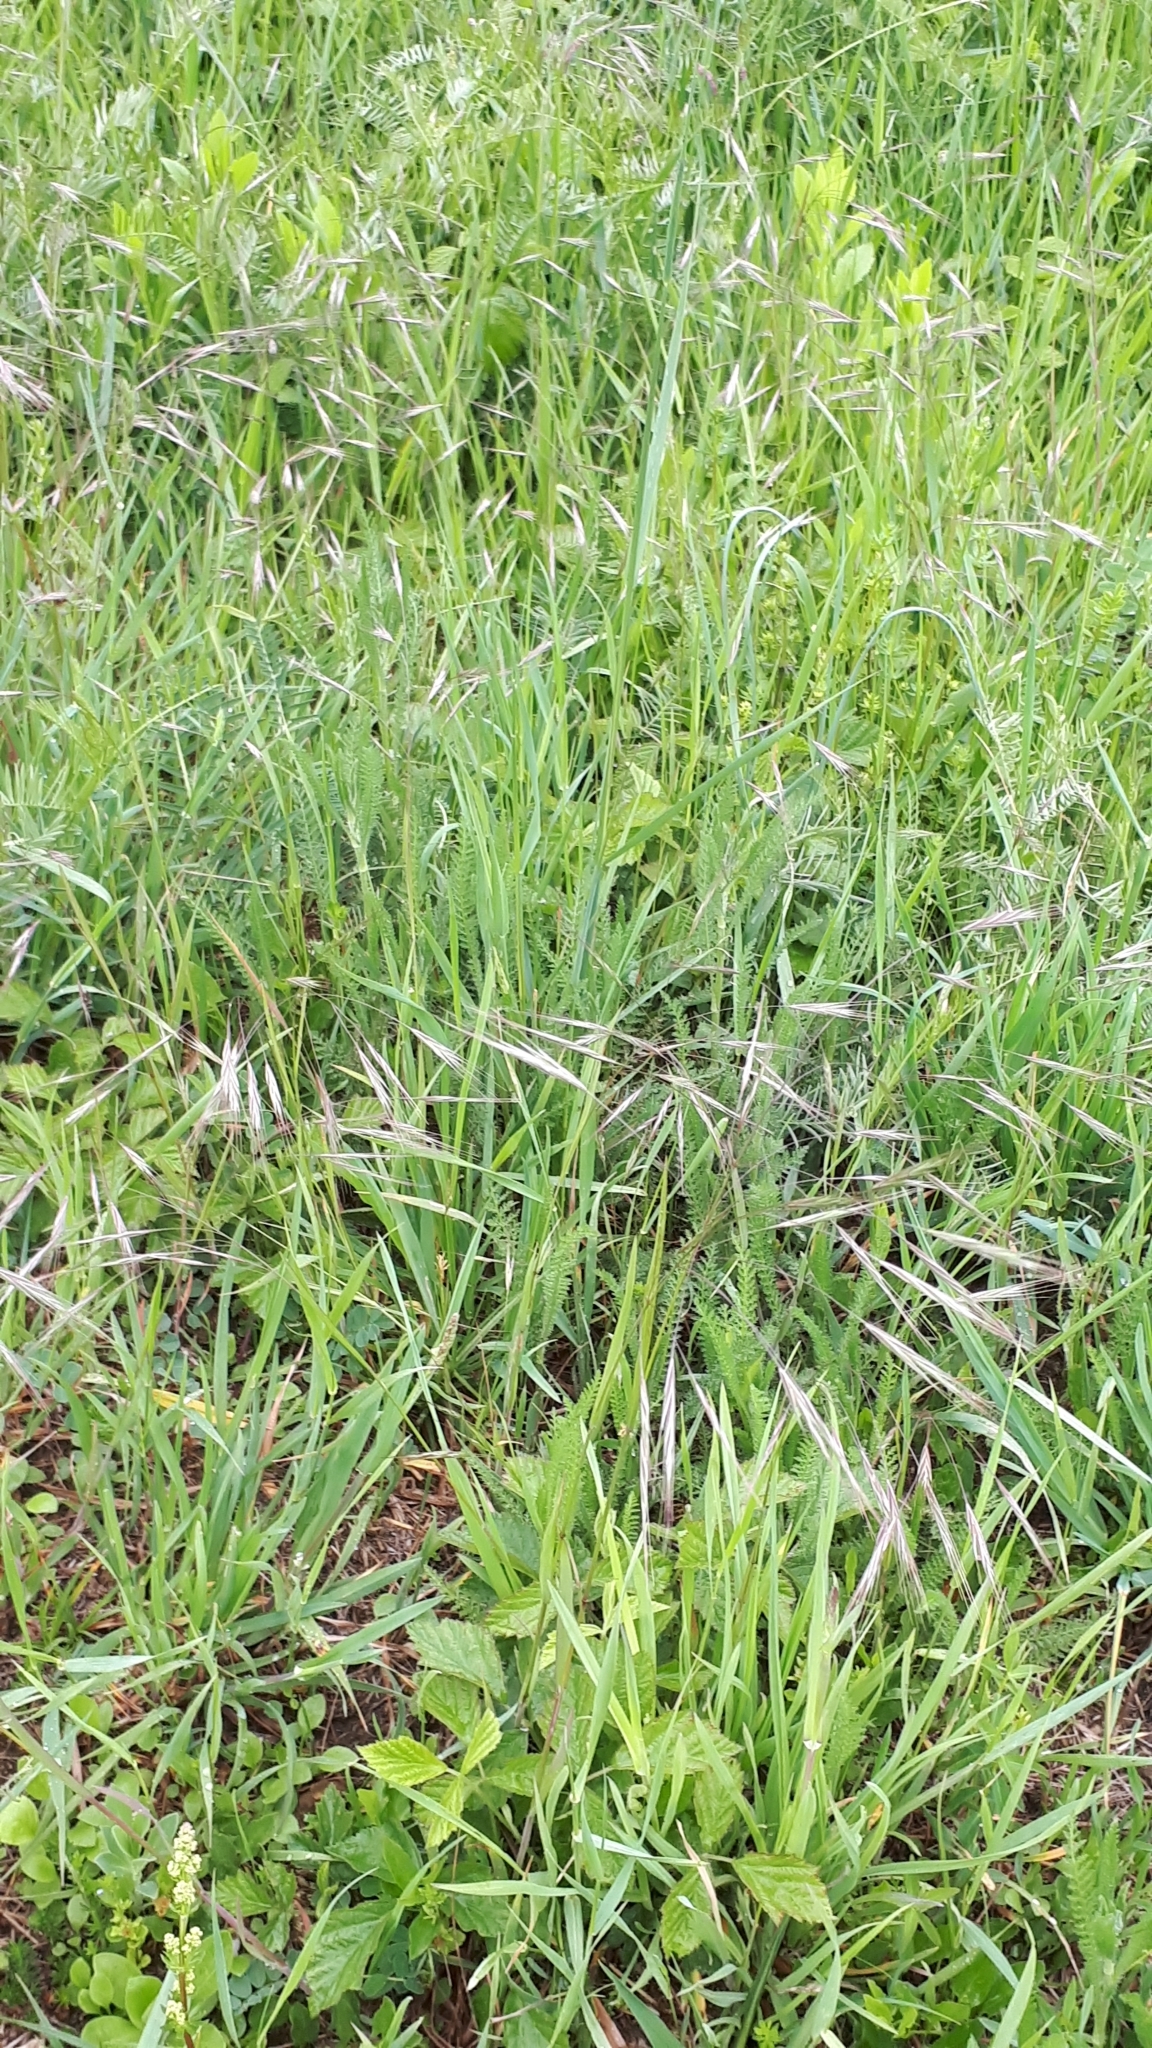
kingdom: Plantae
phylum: Tracheophyta
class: Liliopsida
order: Poales
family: Poaceae
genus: Bromus
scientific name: Bromus sterilis
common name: Poverty brome
